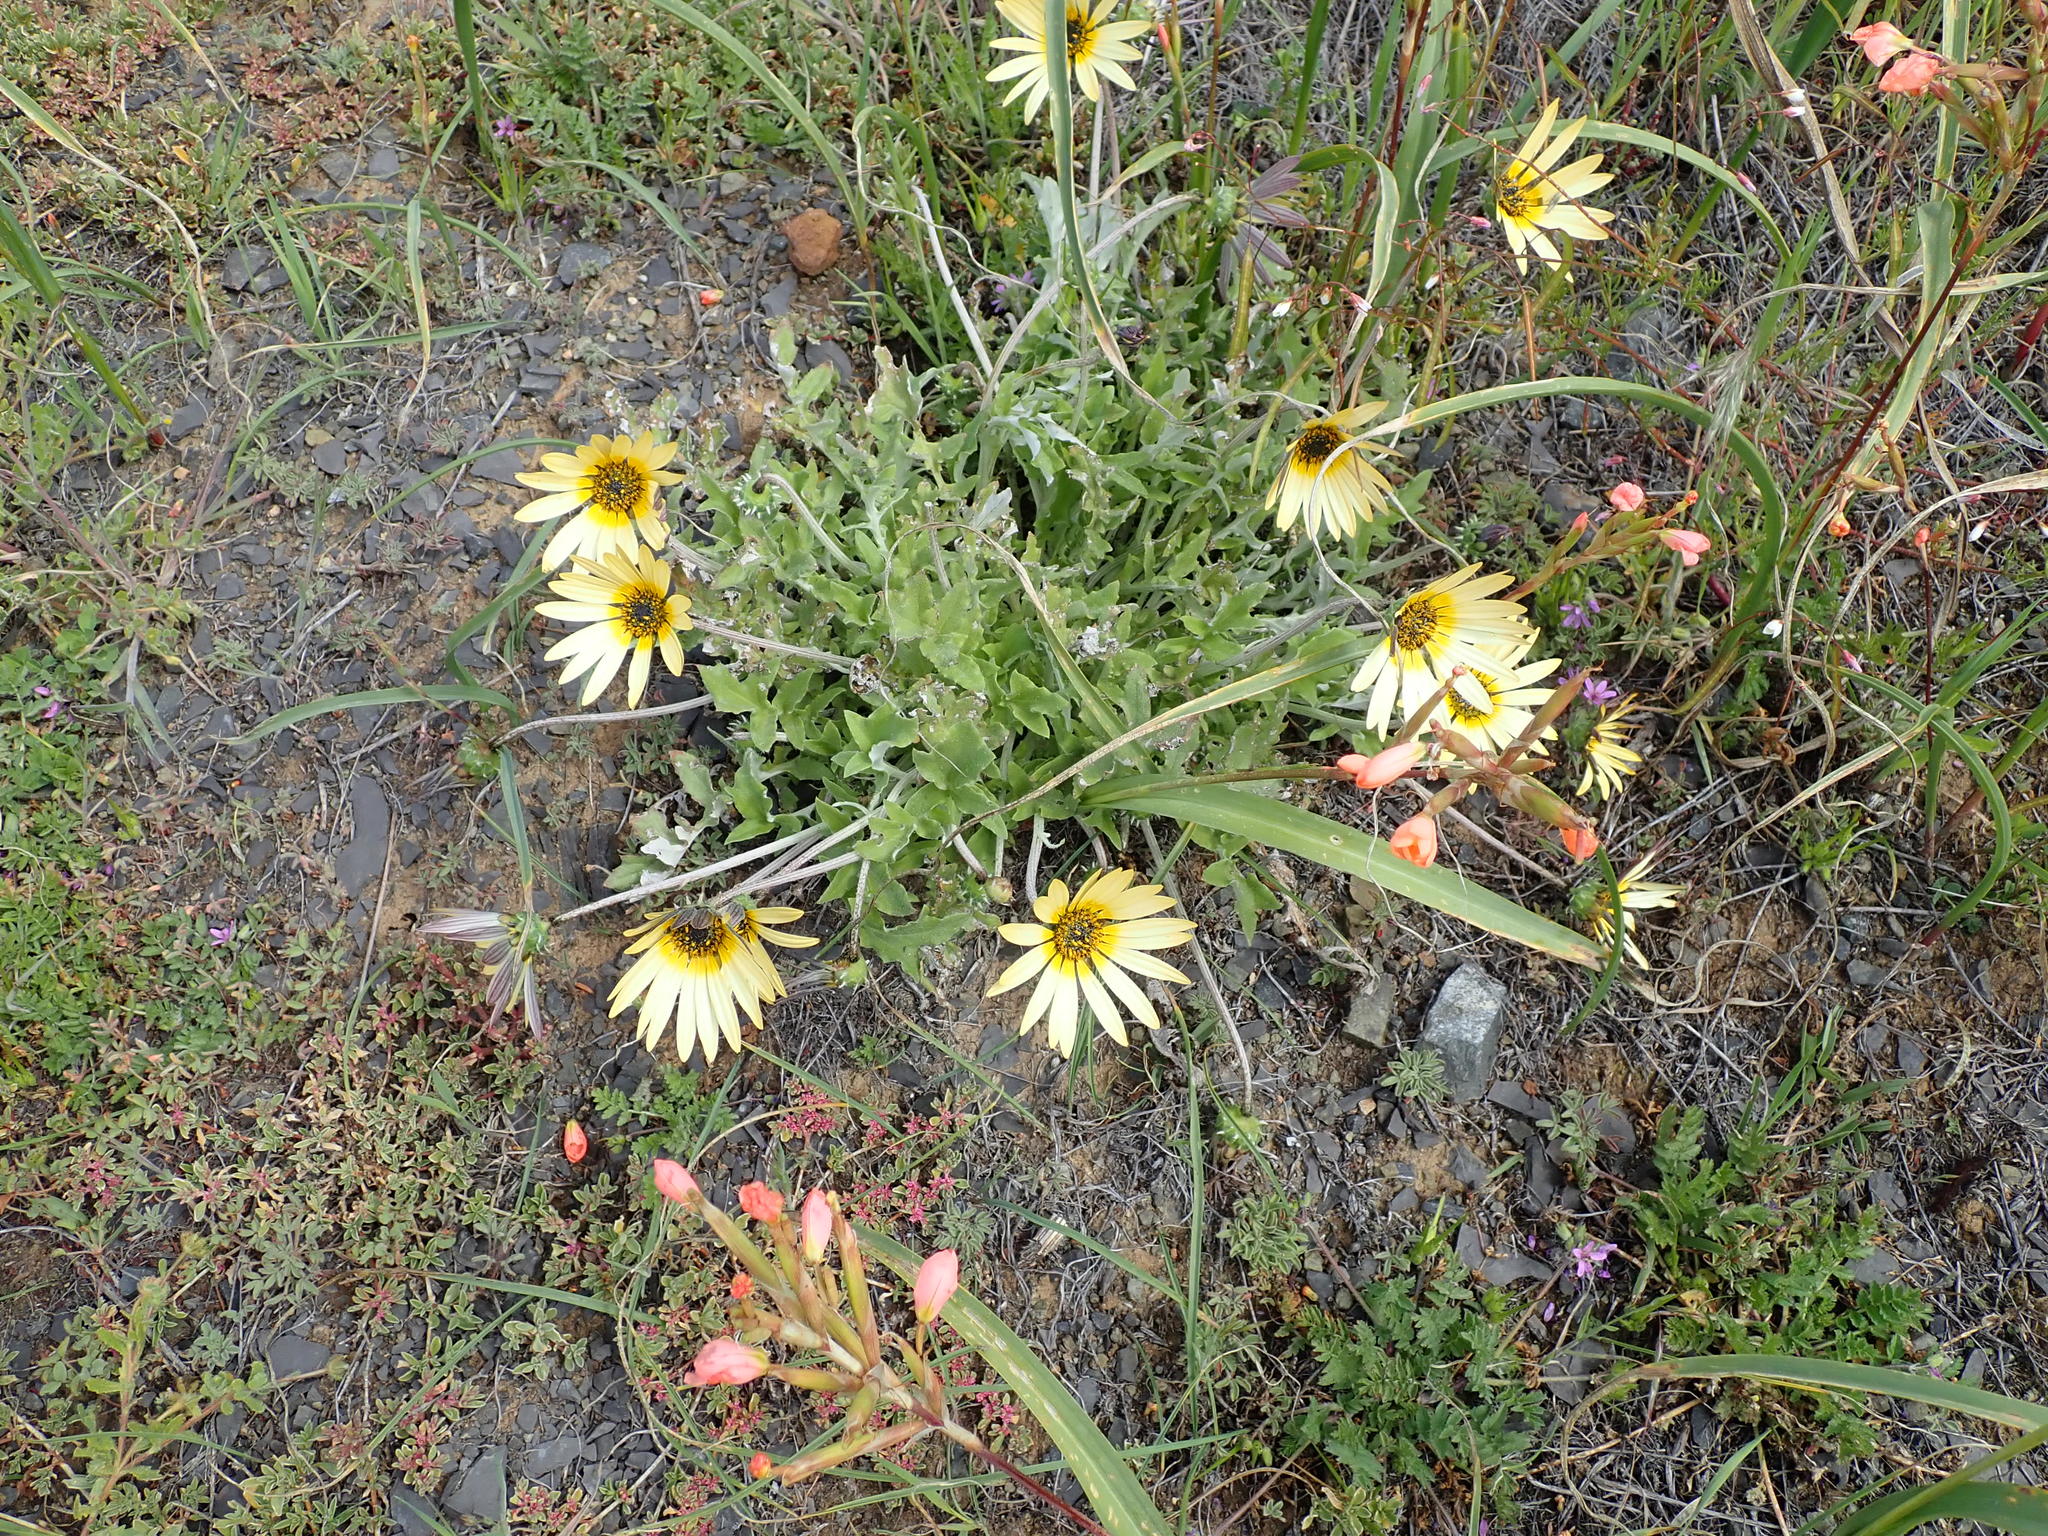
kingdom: Plantae
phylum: Tracheophyta
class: Magnoliopsida
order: Asterales
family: Asteraceae
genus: Arctotheca
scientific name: Arctotheca calendula
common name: Capeweed
